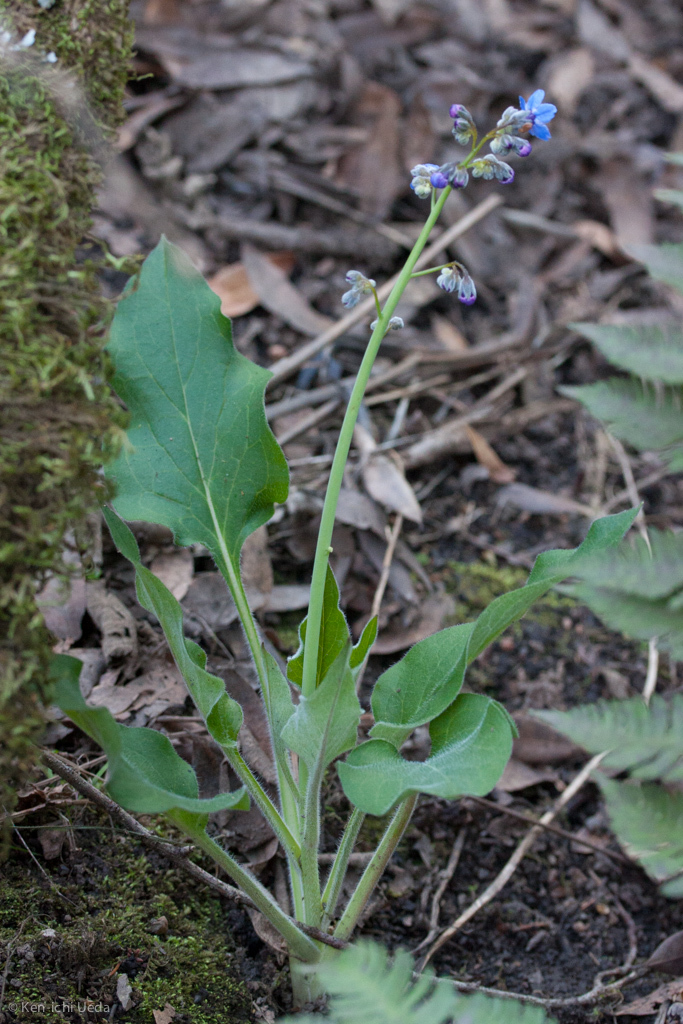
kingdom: Plantae
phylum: Tracheophyta
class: Magnoliopsida
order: Boraginales
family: Boraginaceae
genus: Adelinia
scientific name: Adelinia grande
